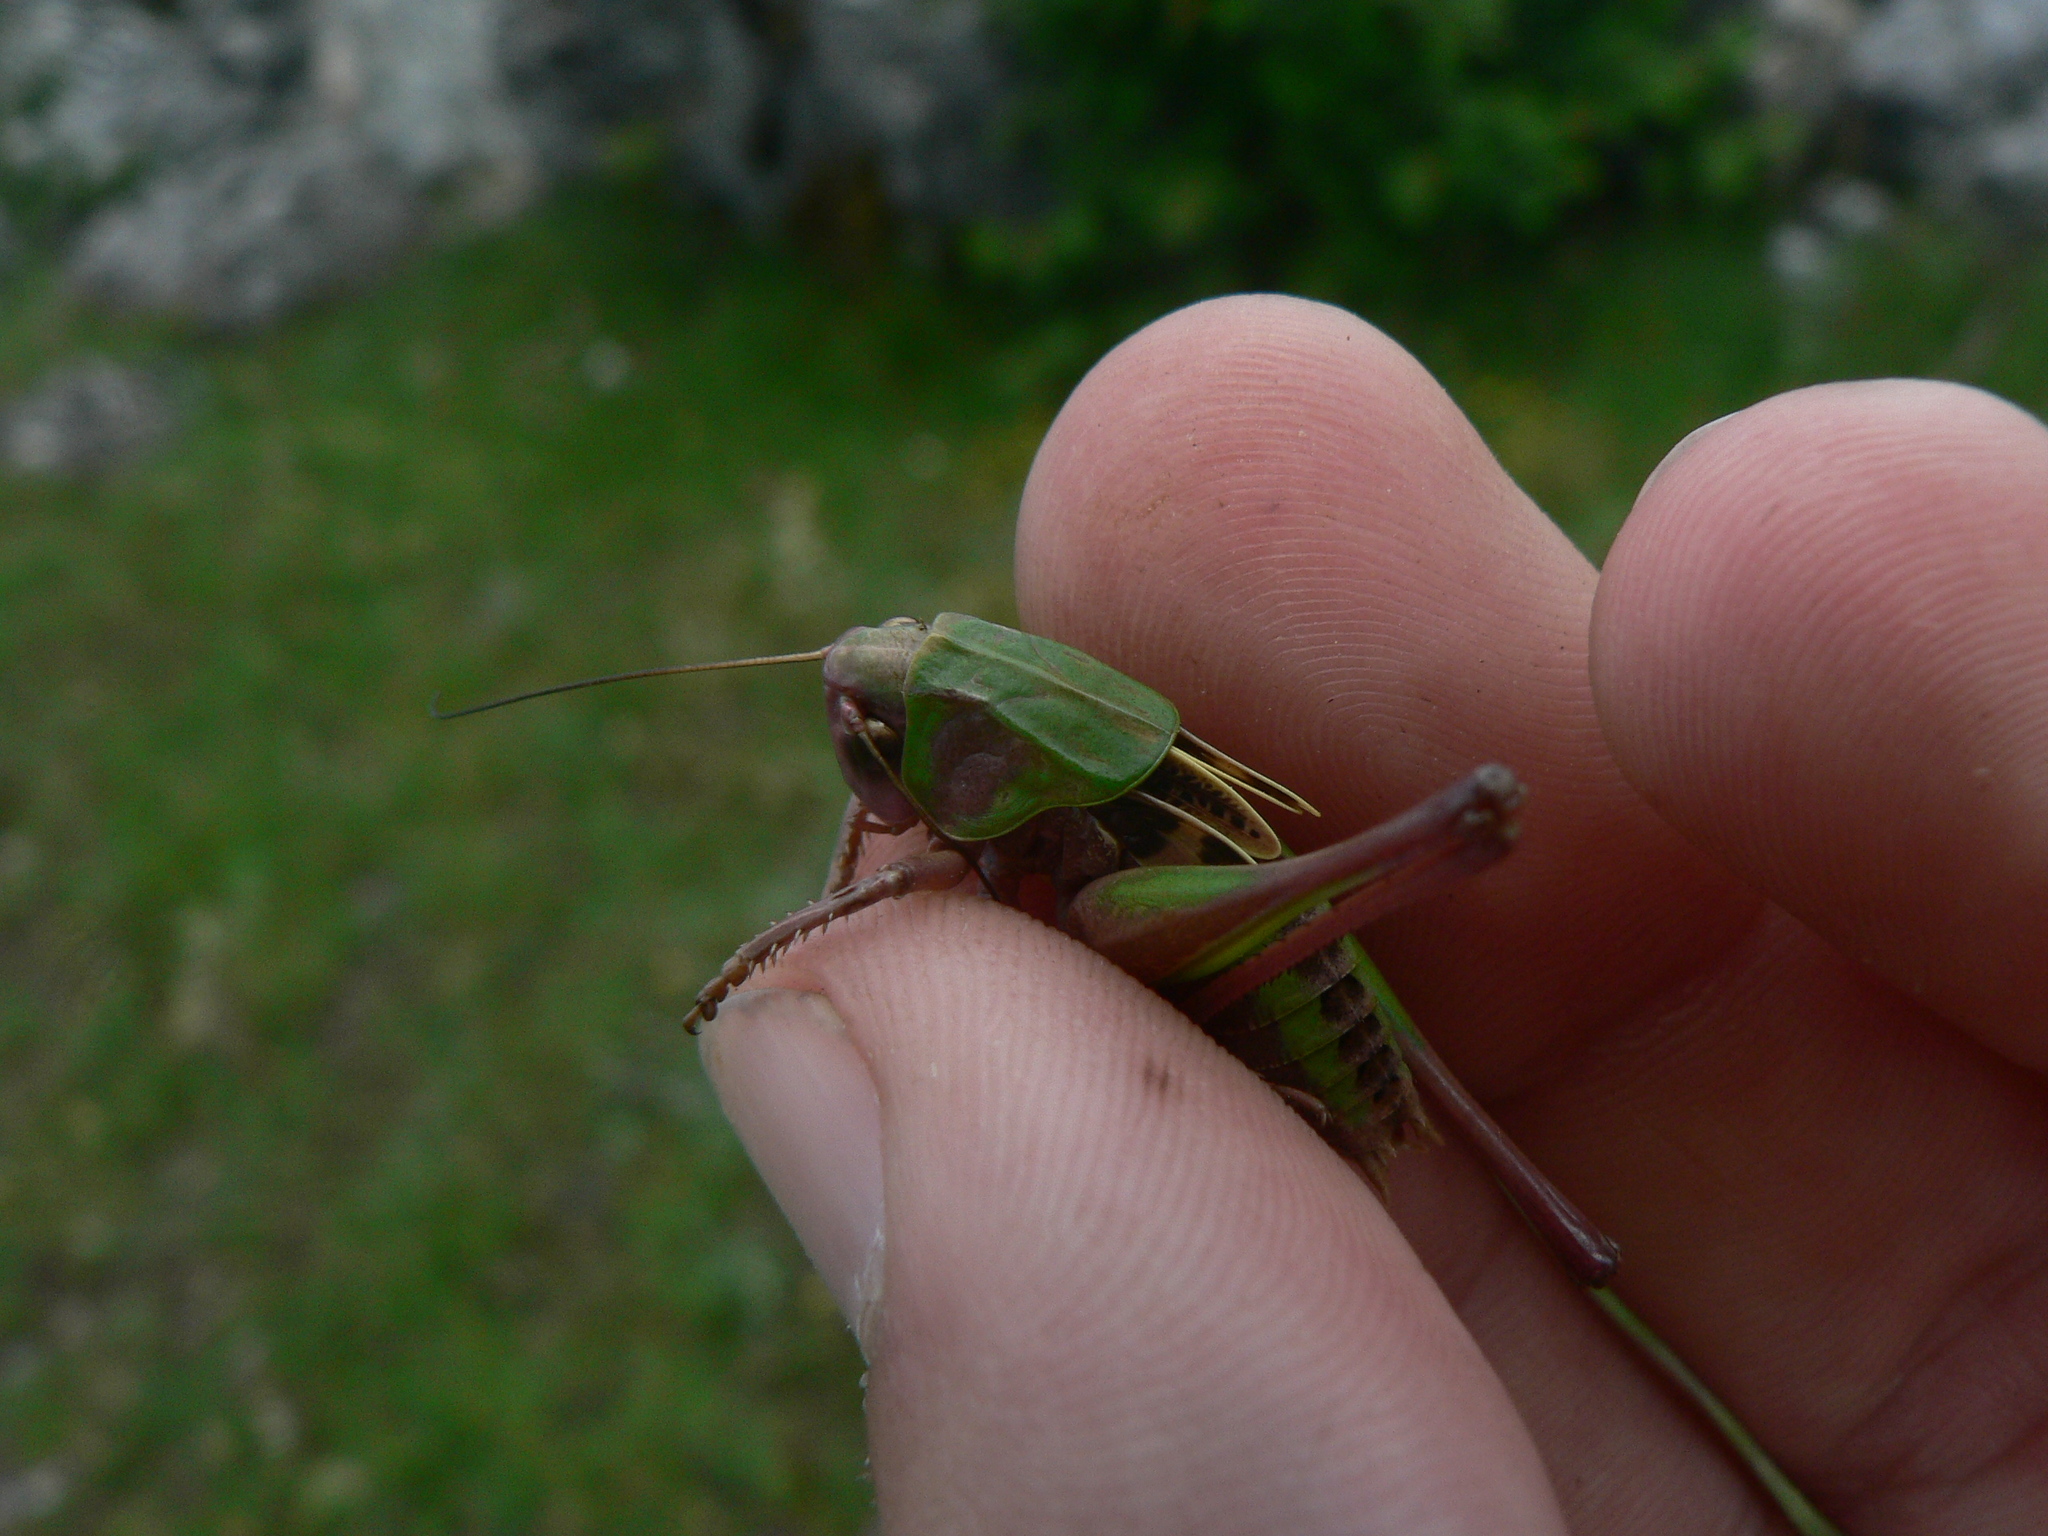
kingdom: Animalia
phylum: Arthropoda
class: Insecta
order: Orthoptera
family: Tettigoniidae
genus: Decticus
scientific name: Decticus verrucivorus
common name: Wart-biter
